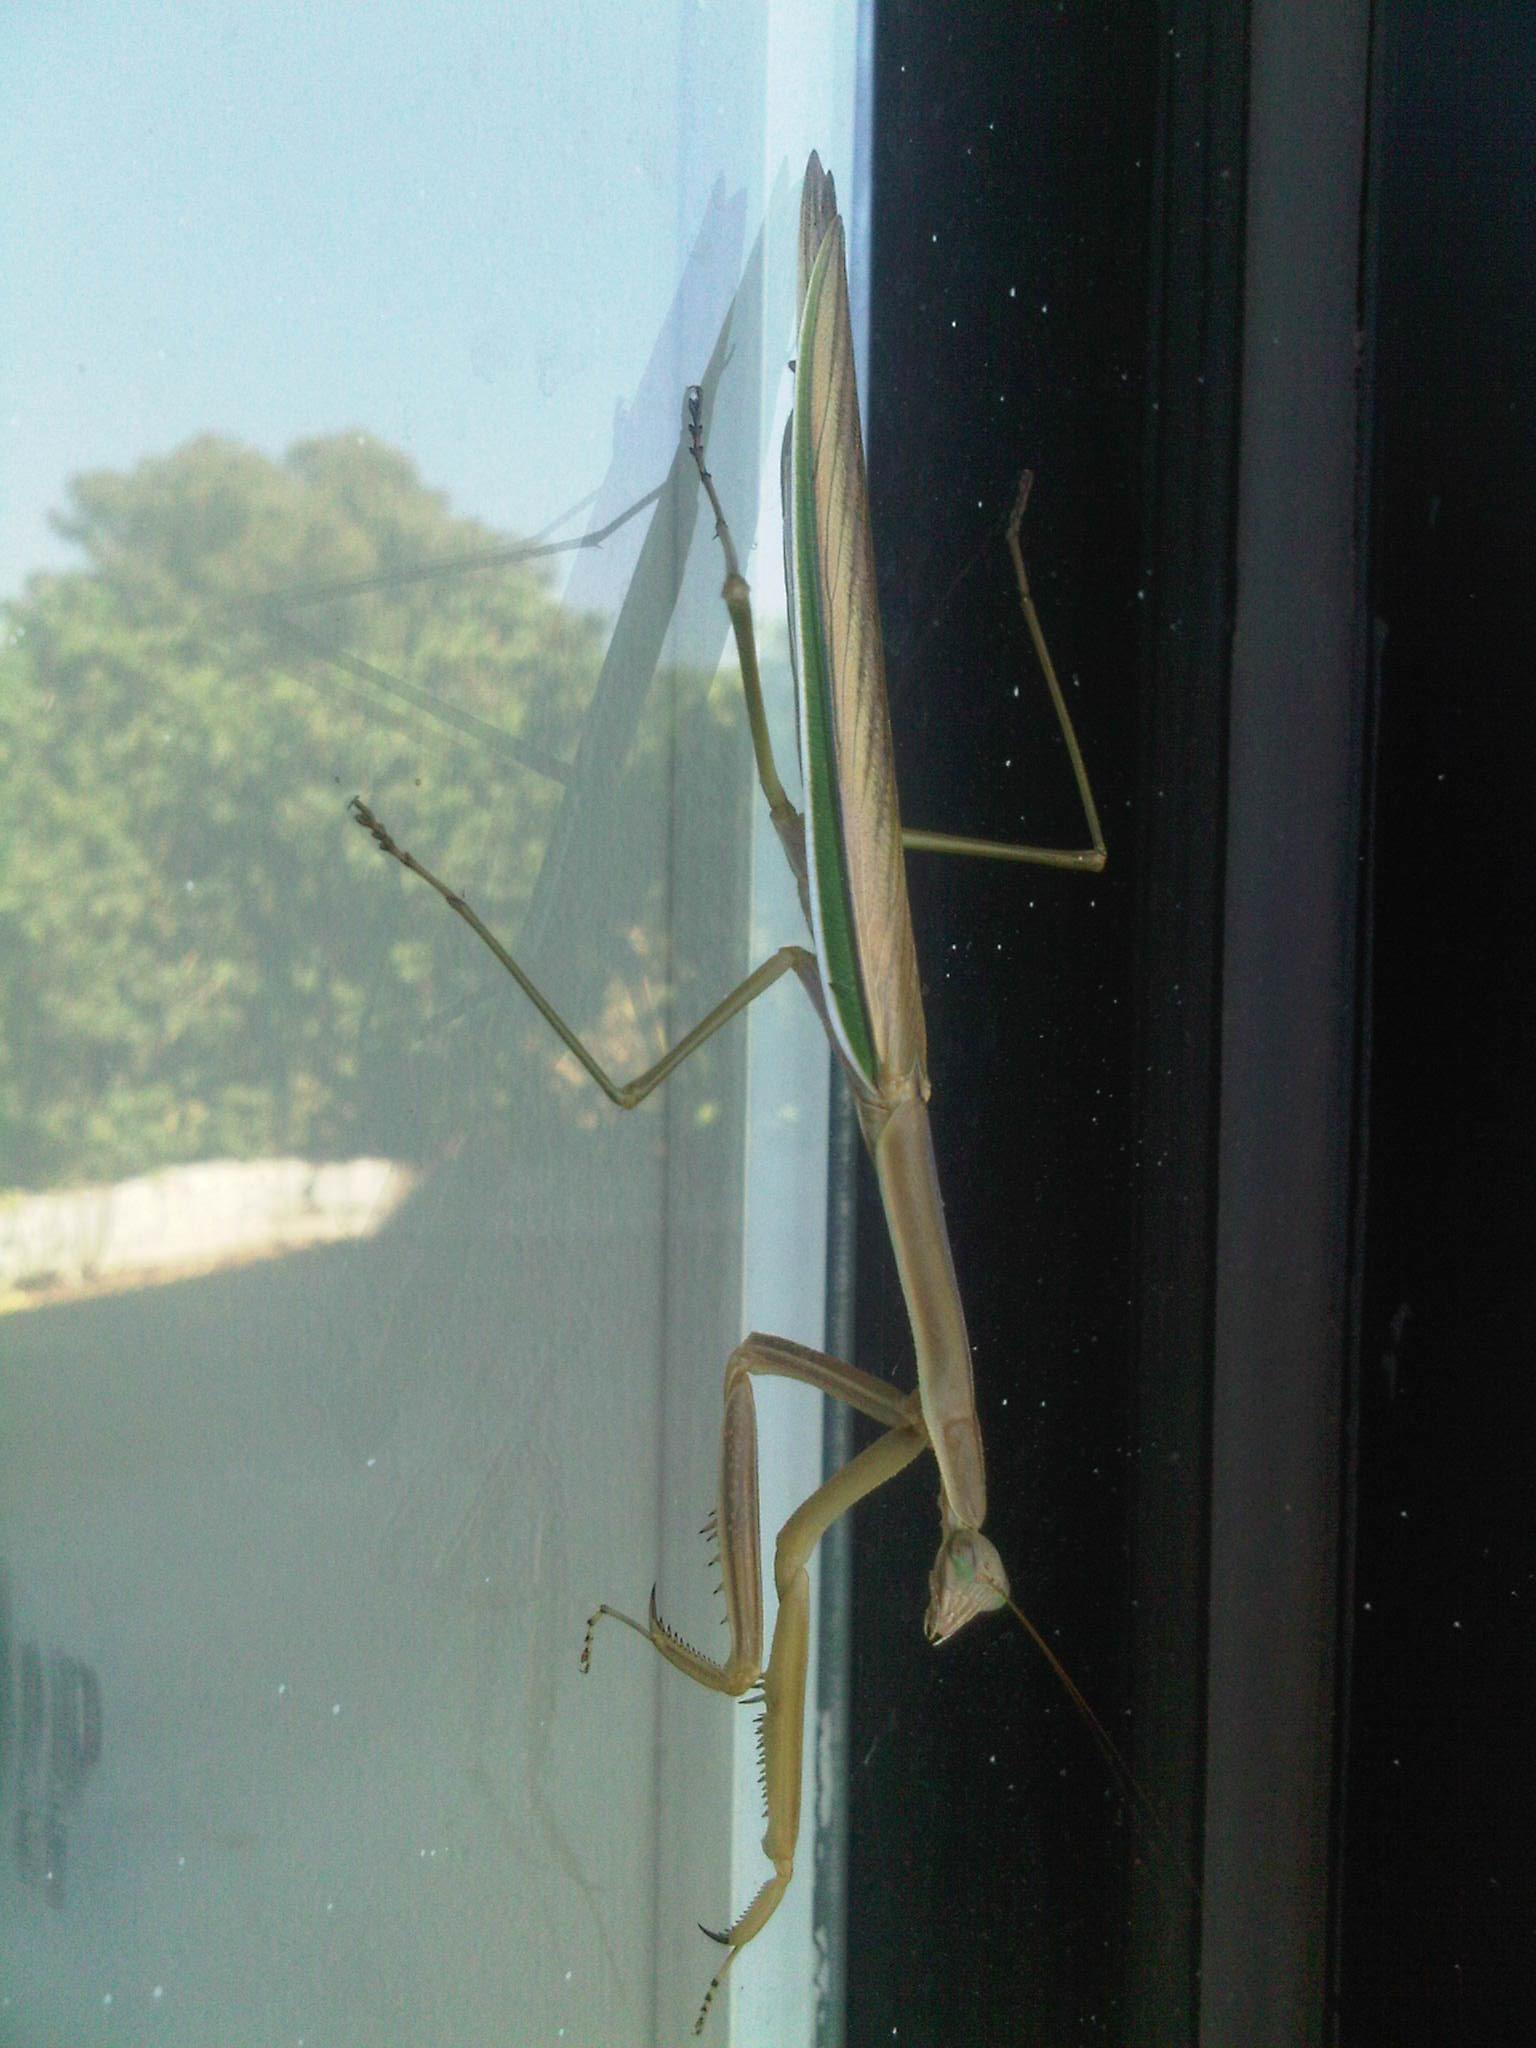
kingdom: Animalia
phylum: Arthropoda
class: Insecta
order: Mantodea
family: Mantidae
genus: Tenodera
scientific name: Tenodera australasiae
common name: Purple-winged mantis
